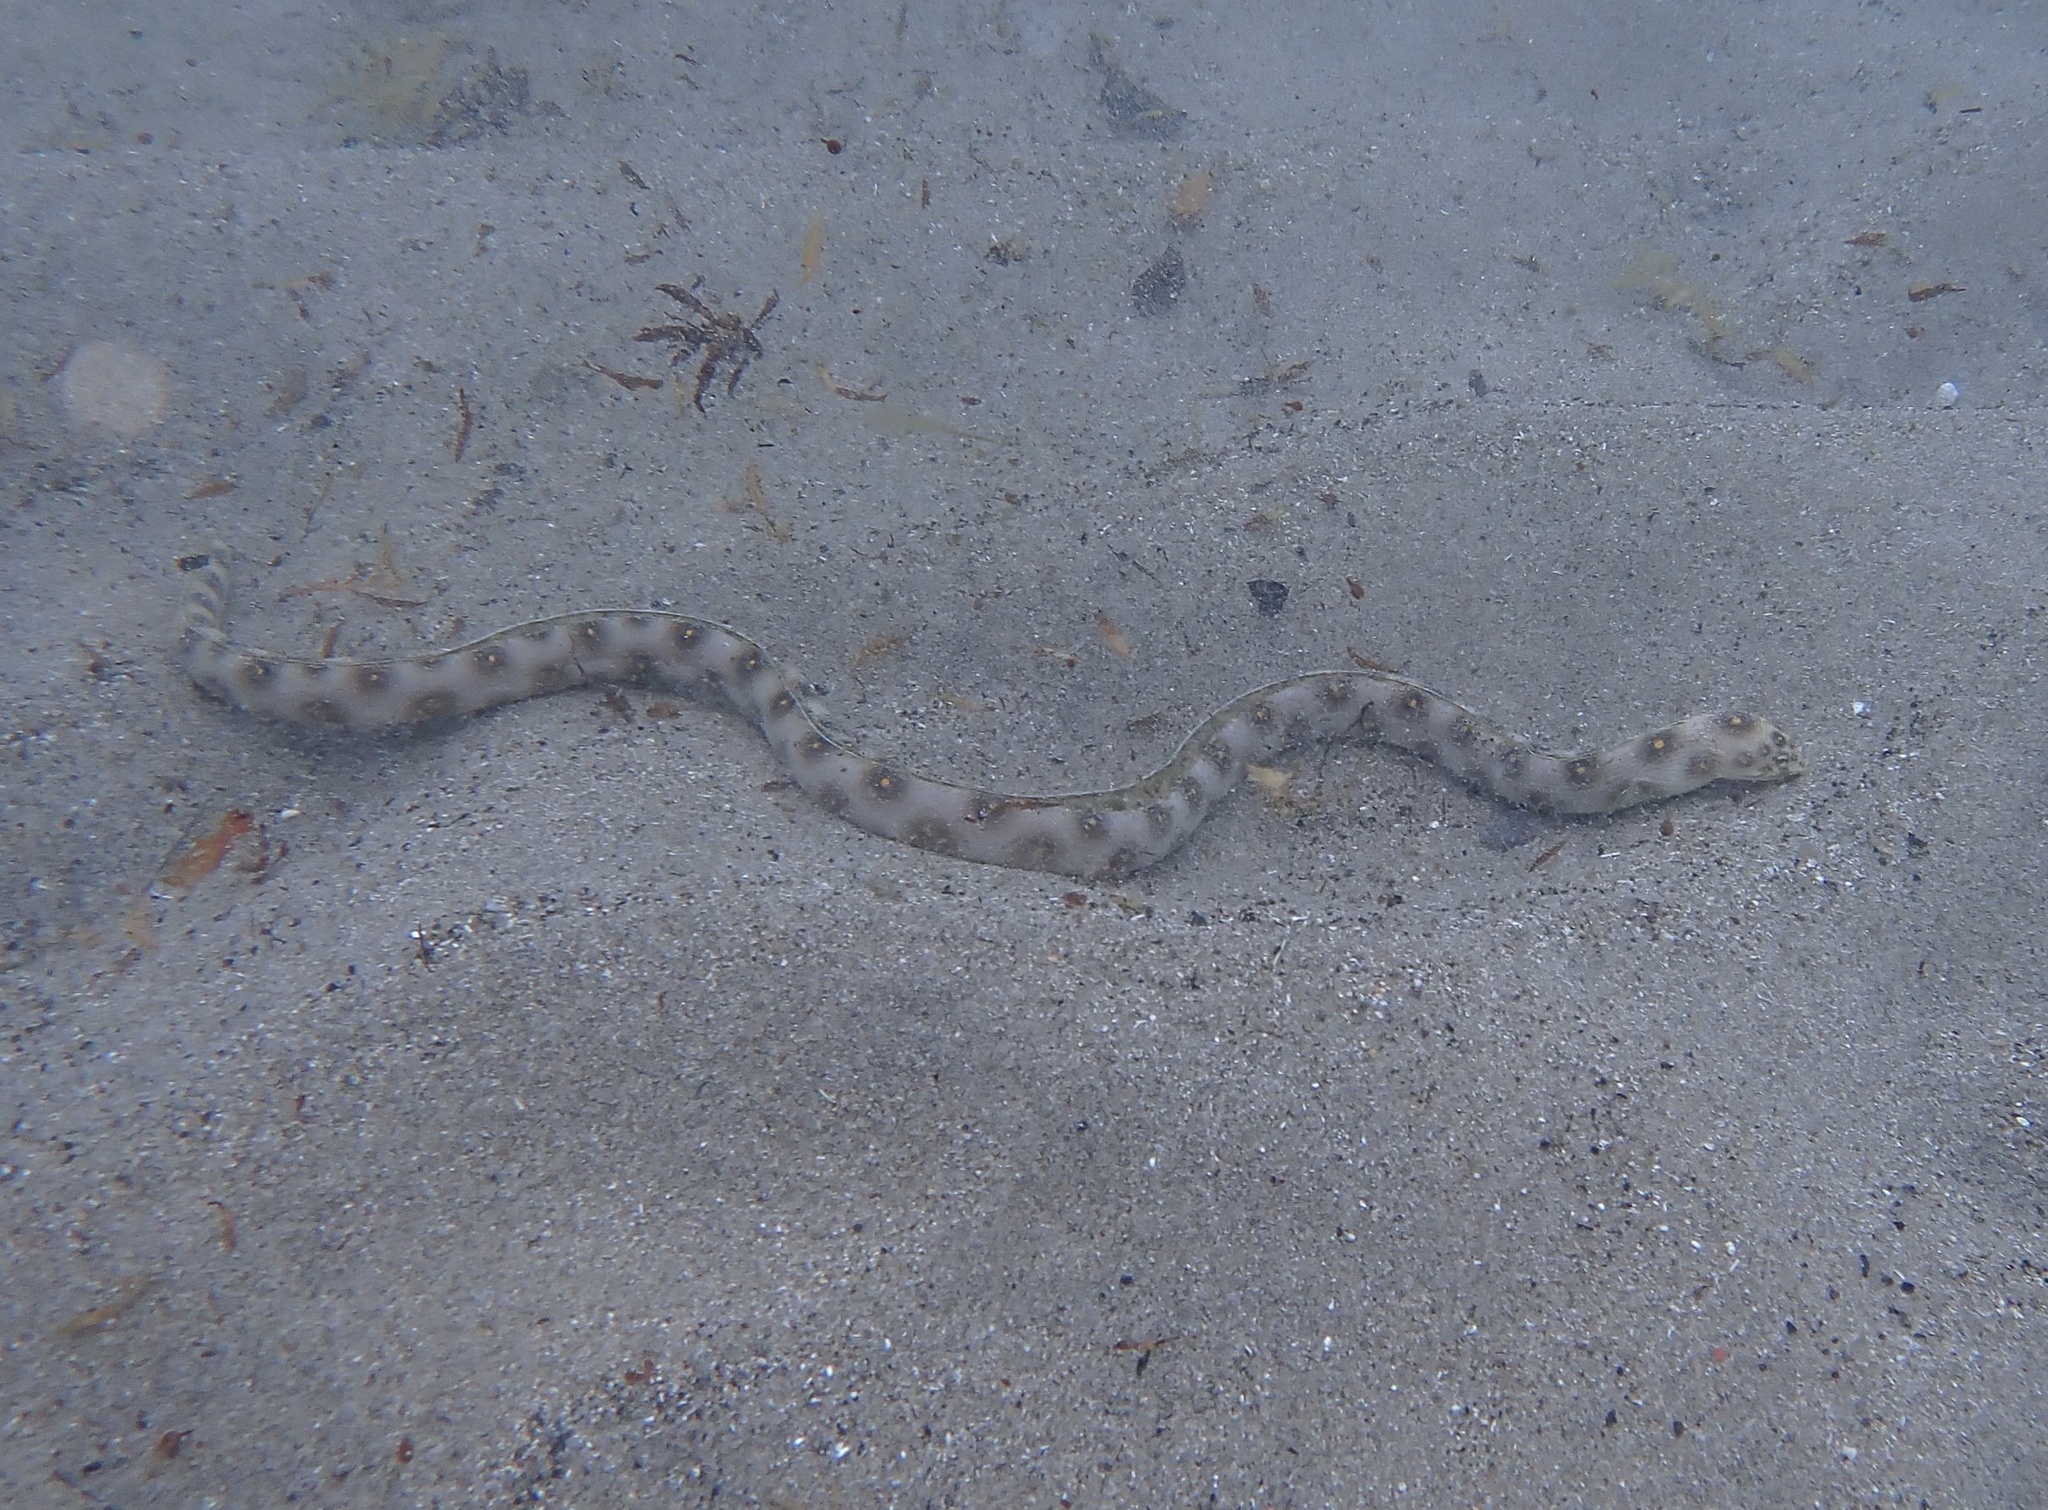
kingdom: Animalia
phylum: Chordata
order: Anguilliformes
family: Ophichthidae
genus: Myrichthys
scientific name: Myrichthys ocellatus
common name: Goldspotted eel
